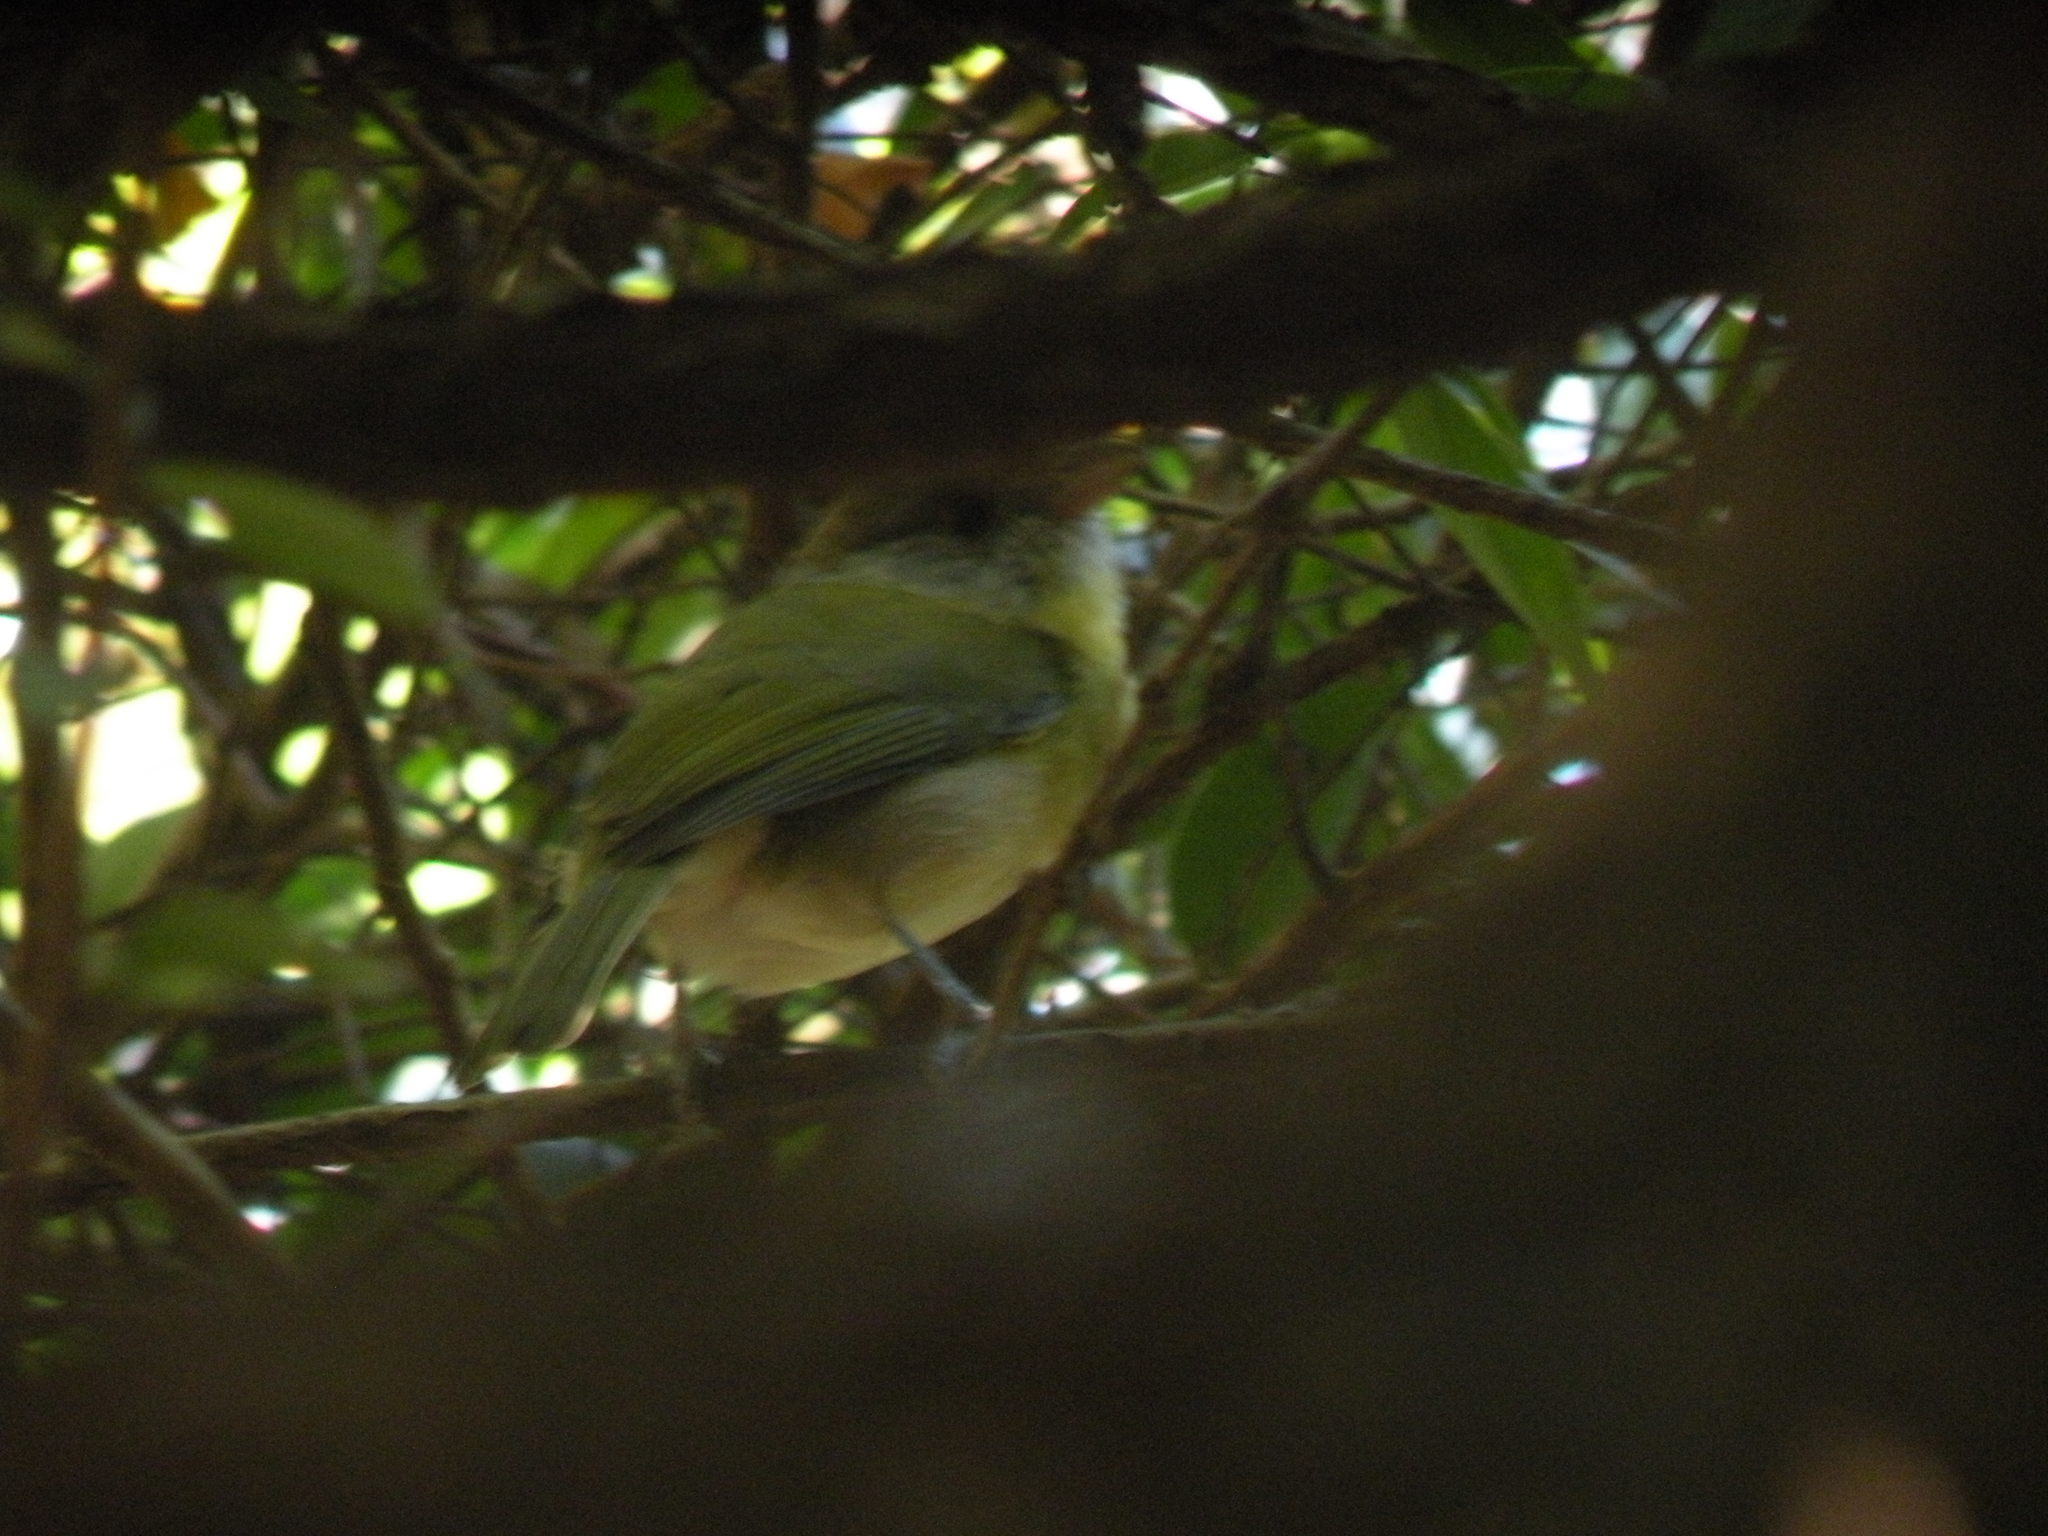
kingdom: Animalia
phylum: Chordata
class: Aves
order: Passeriformes
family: Vireonidae
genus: Cyclarhis
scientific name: Cyclarhis gujanensis
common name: Rufous-browed peppershrike
